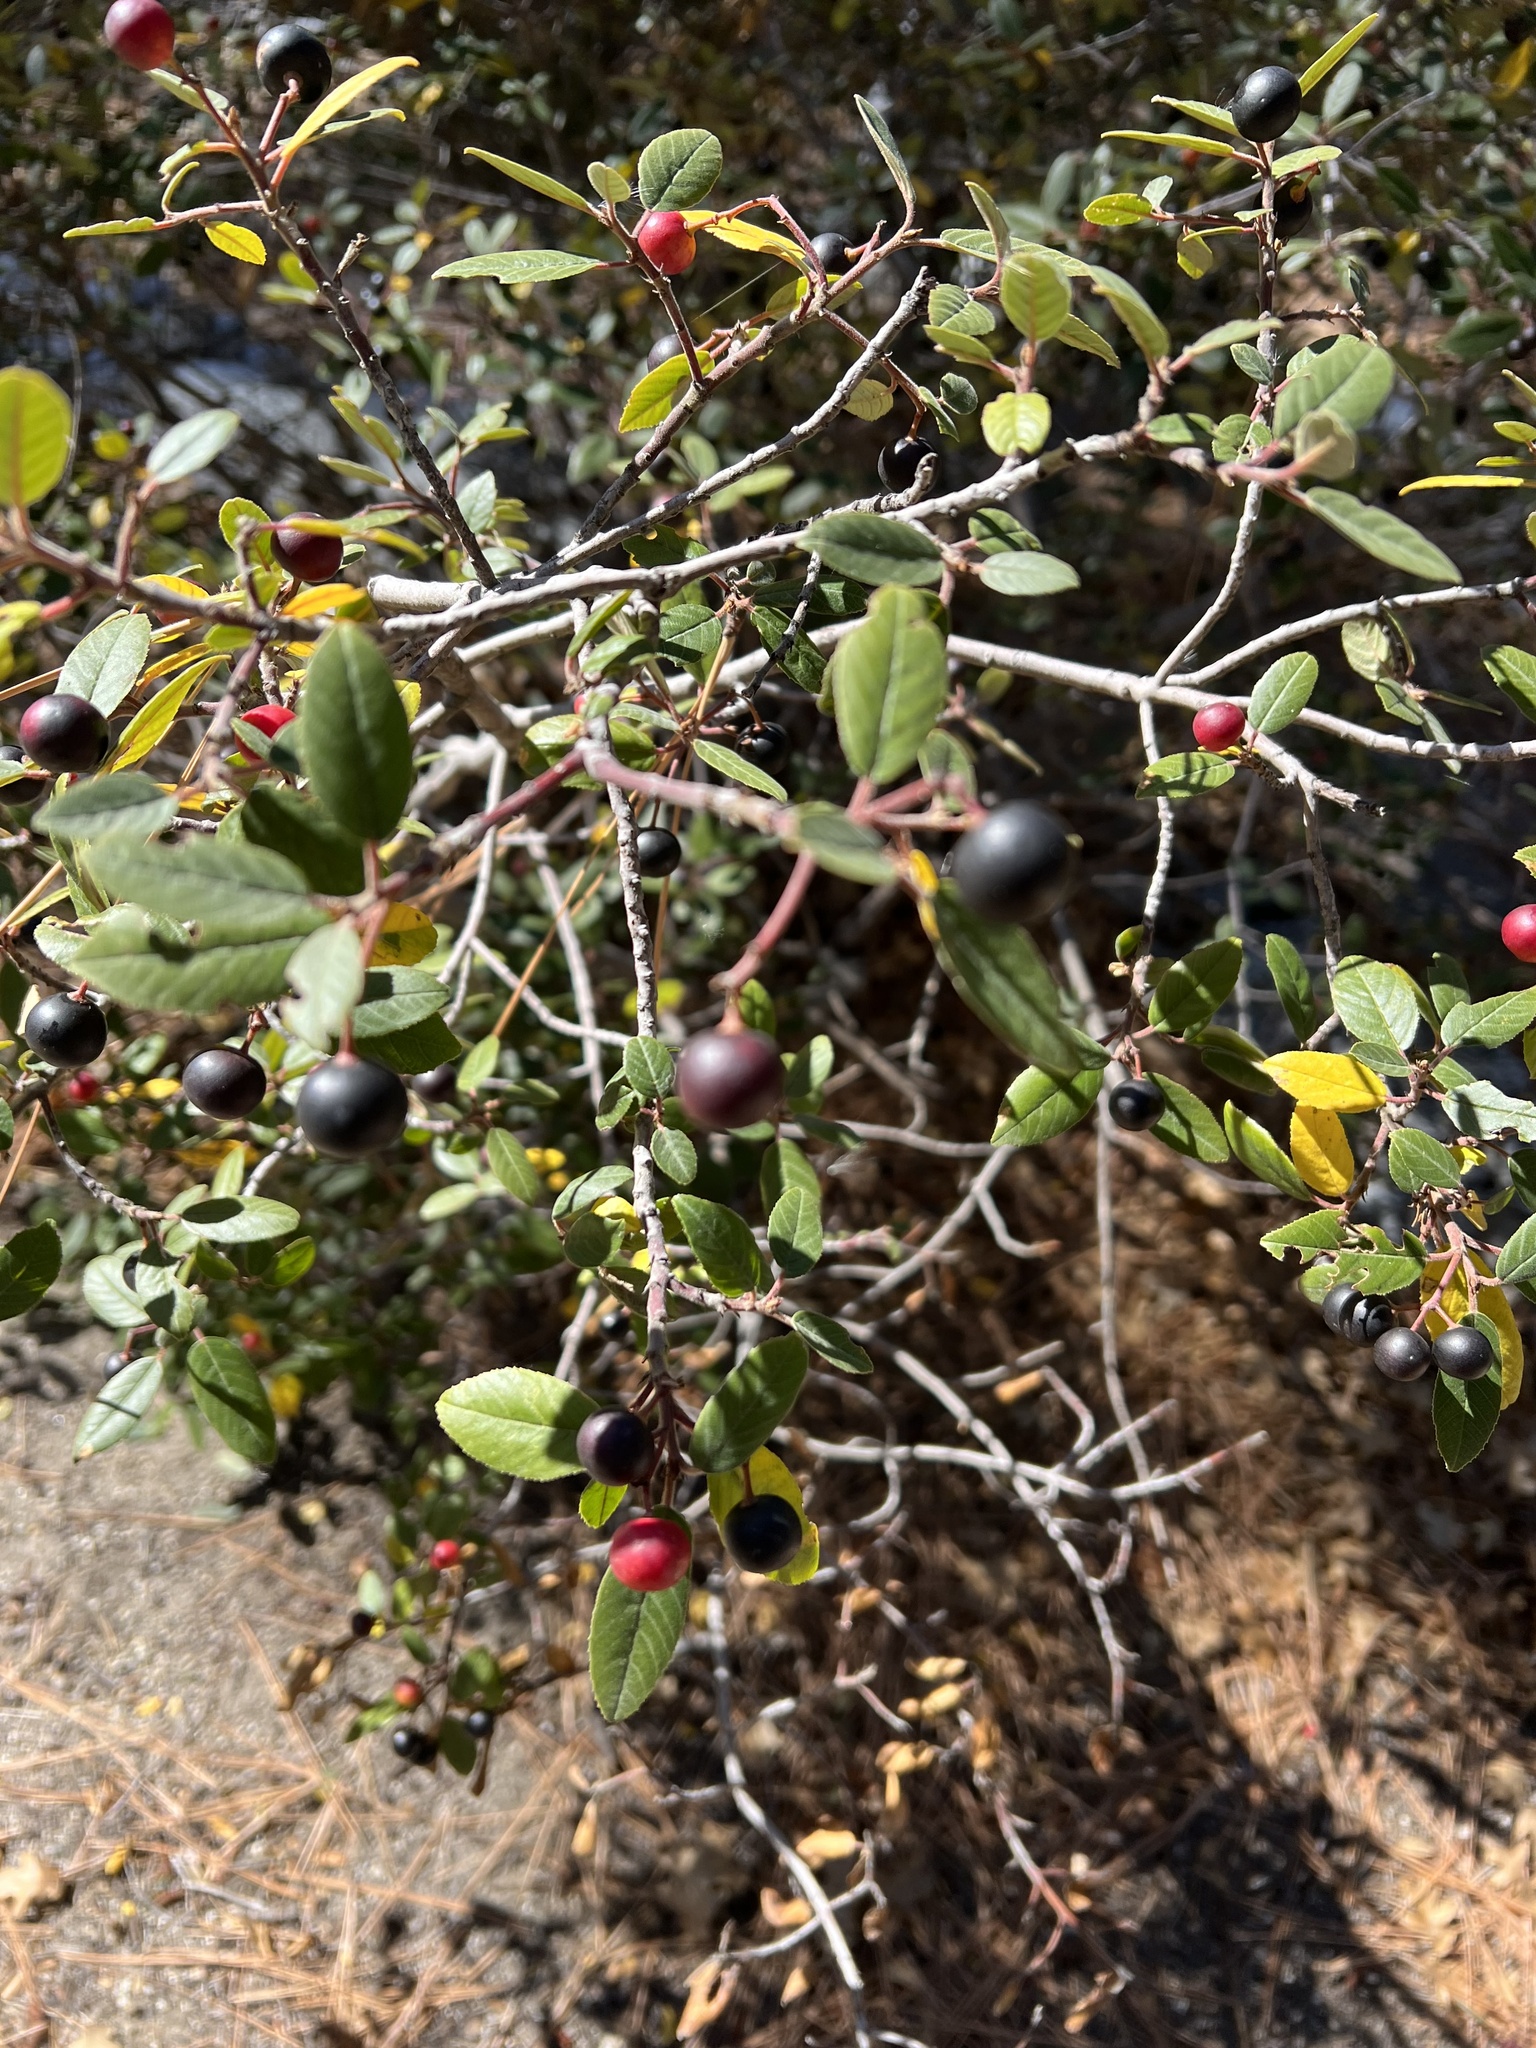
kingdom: Plantae
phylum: Tracheophyta
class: Magnoliopsida
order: Rosales
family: Rhamnaceae
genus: Frangula
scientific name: Frangula californica
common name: California buckthorn
